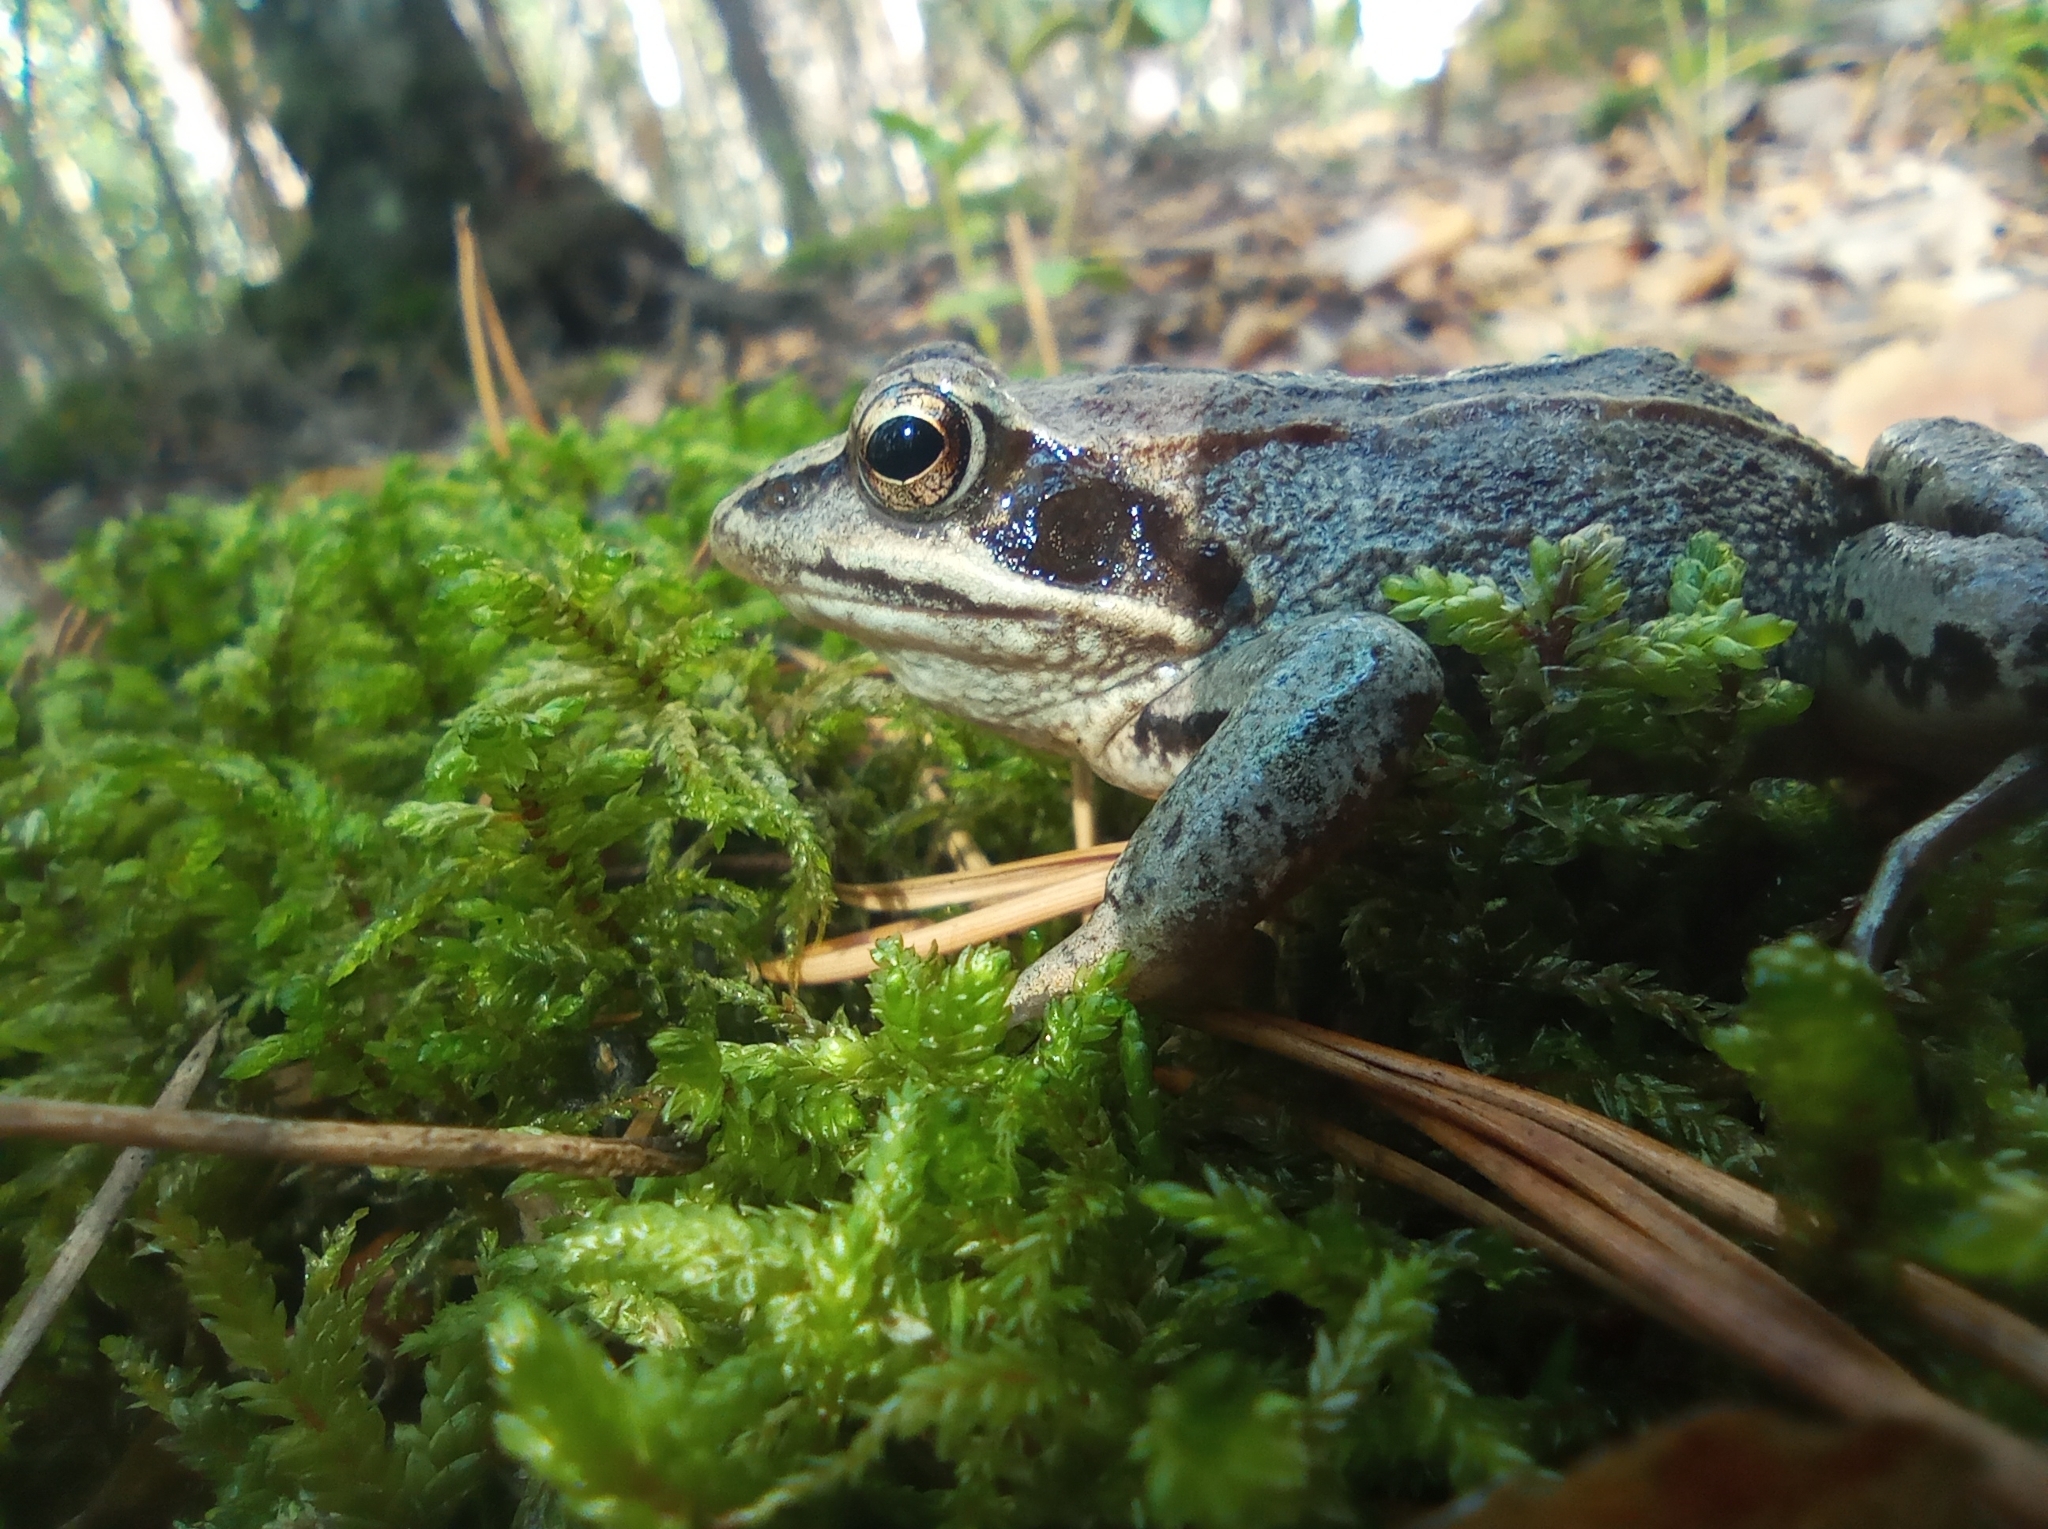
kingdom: Animalia
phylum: Chordata
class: Amphibia
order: Anura
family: Ranidae
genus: Rana
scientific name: Rana arvalis
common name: Moor frog
